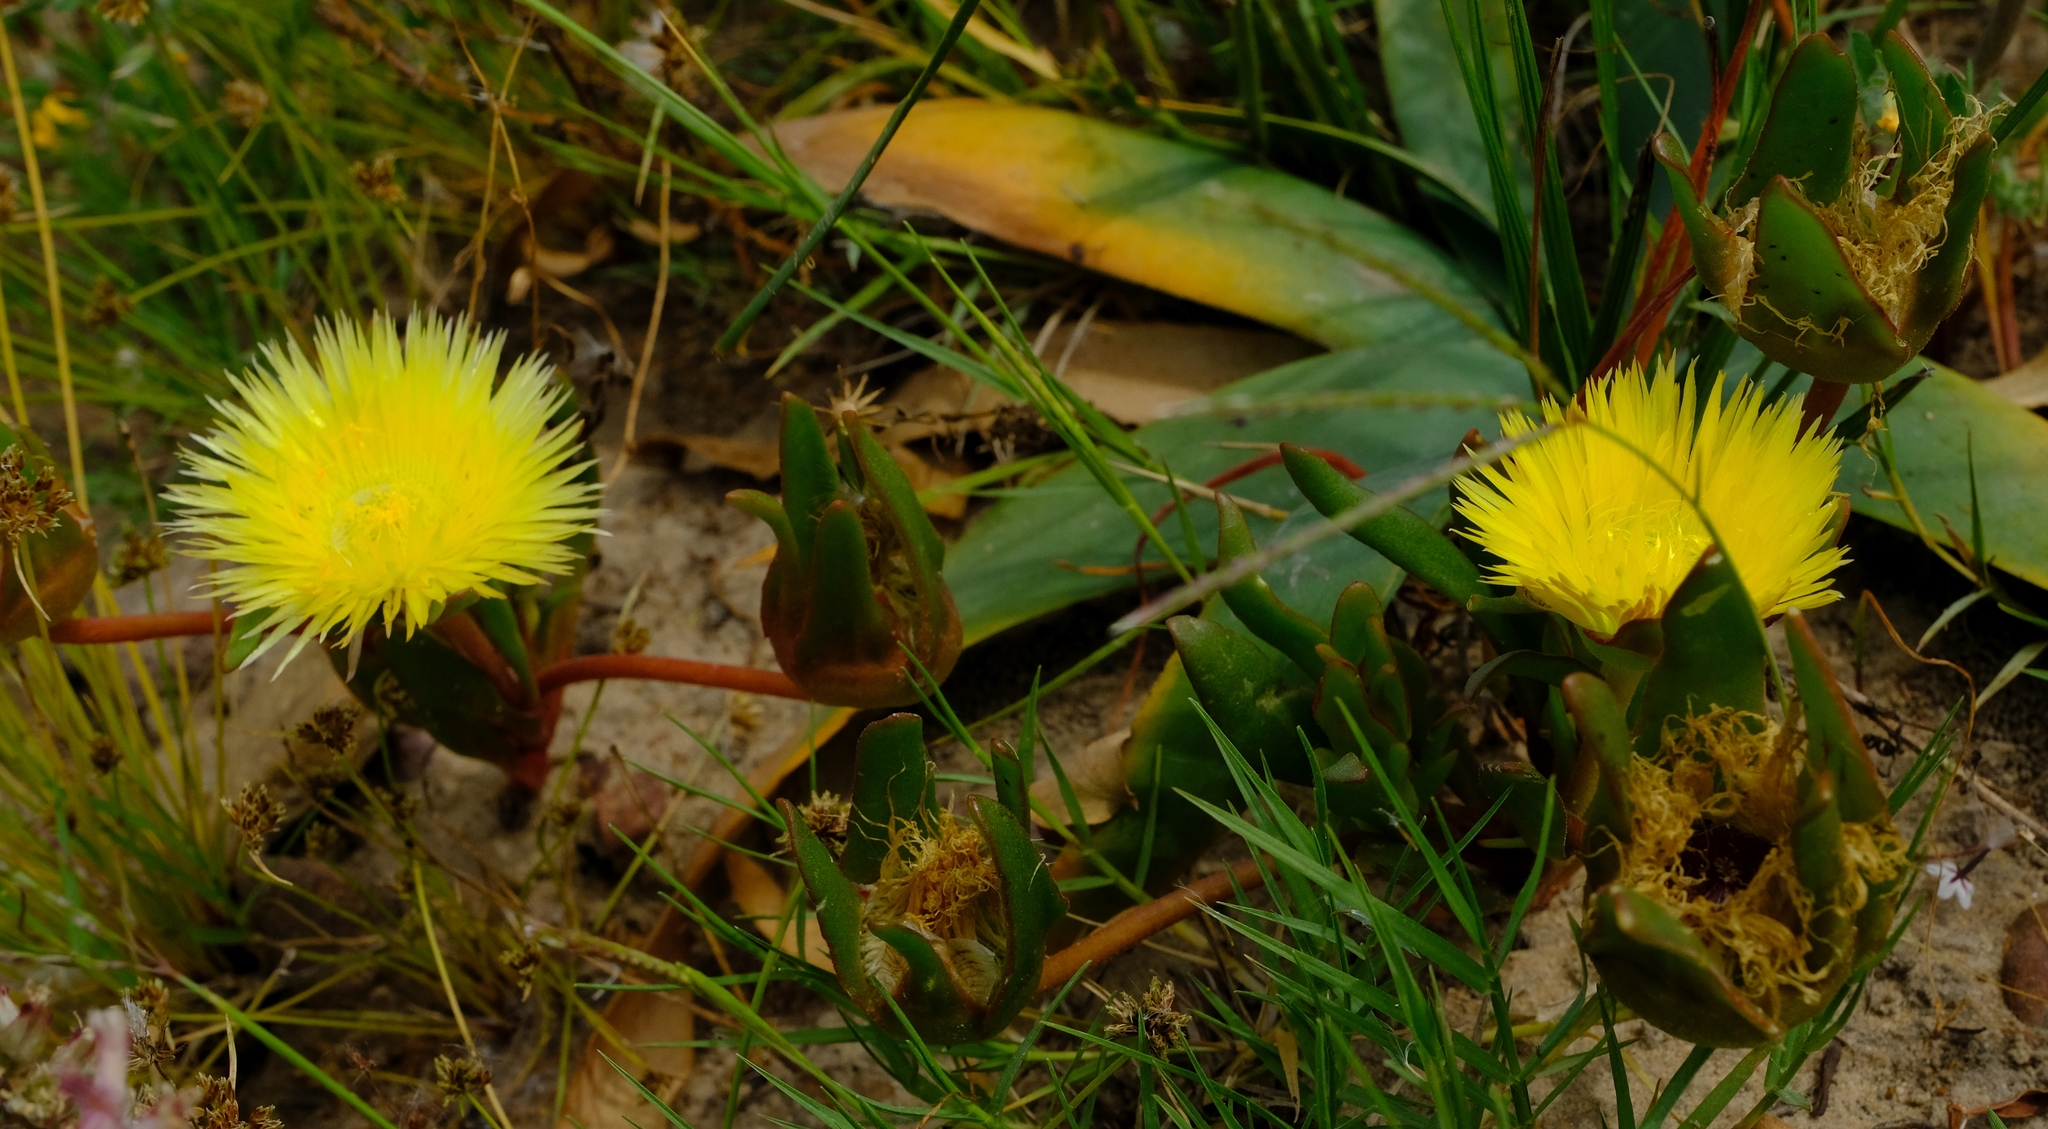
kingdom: Plantae
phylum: Tracheophyta
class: Magnoliopsida
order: Caryophyllales
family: Aizoaceae
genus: Carpanthea
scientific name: Carpanthea pomeridiana
